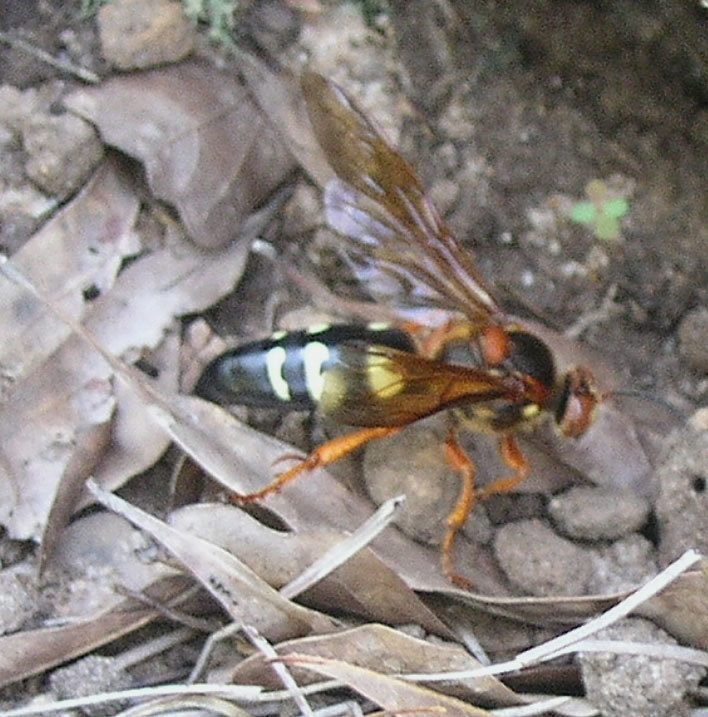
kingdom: Animalia
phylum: Arthropoda
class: Insecta
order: Hymenoptera
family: Crabronidae
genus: Sphecius
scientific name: Sphecius speciosus
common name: Cicada killer
